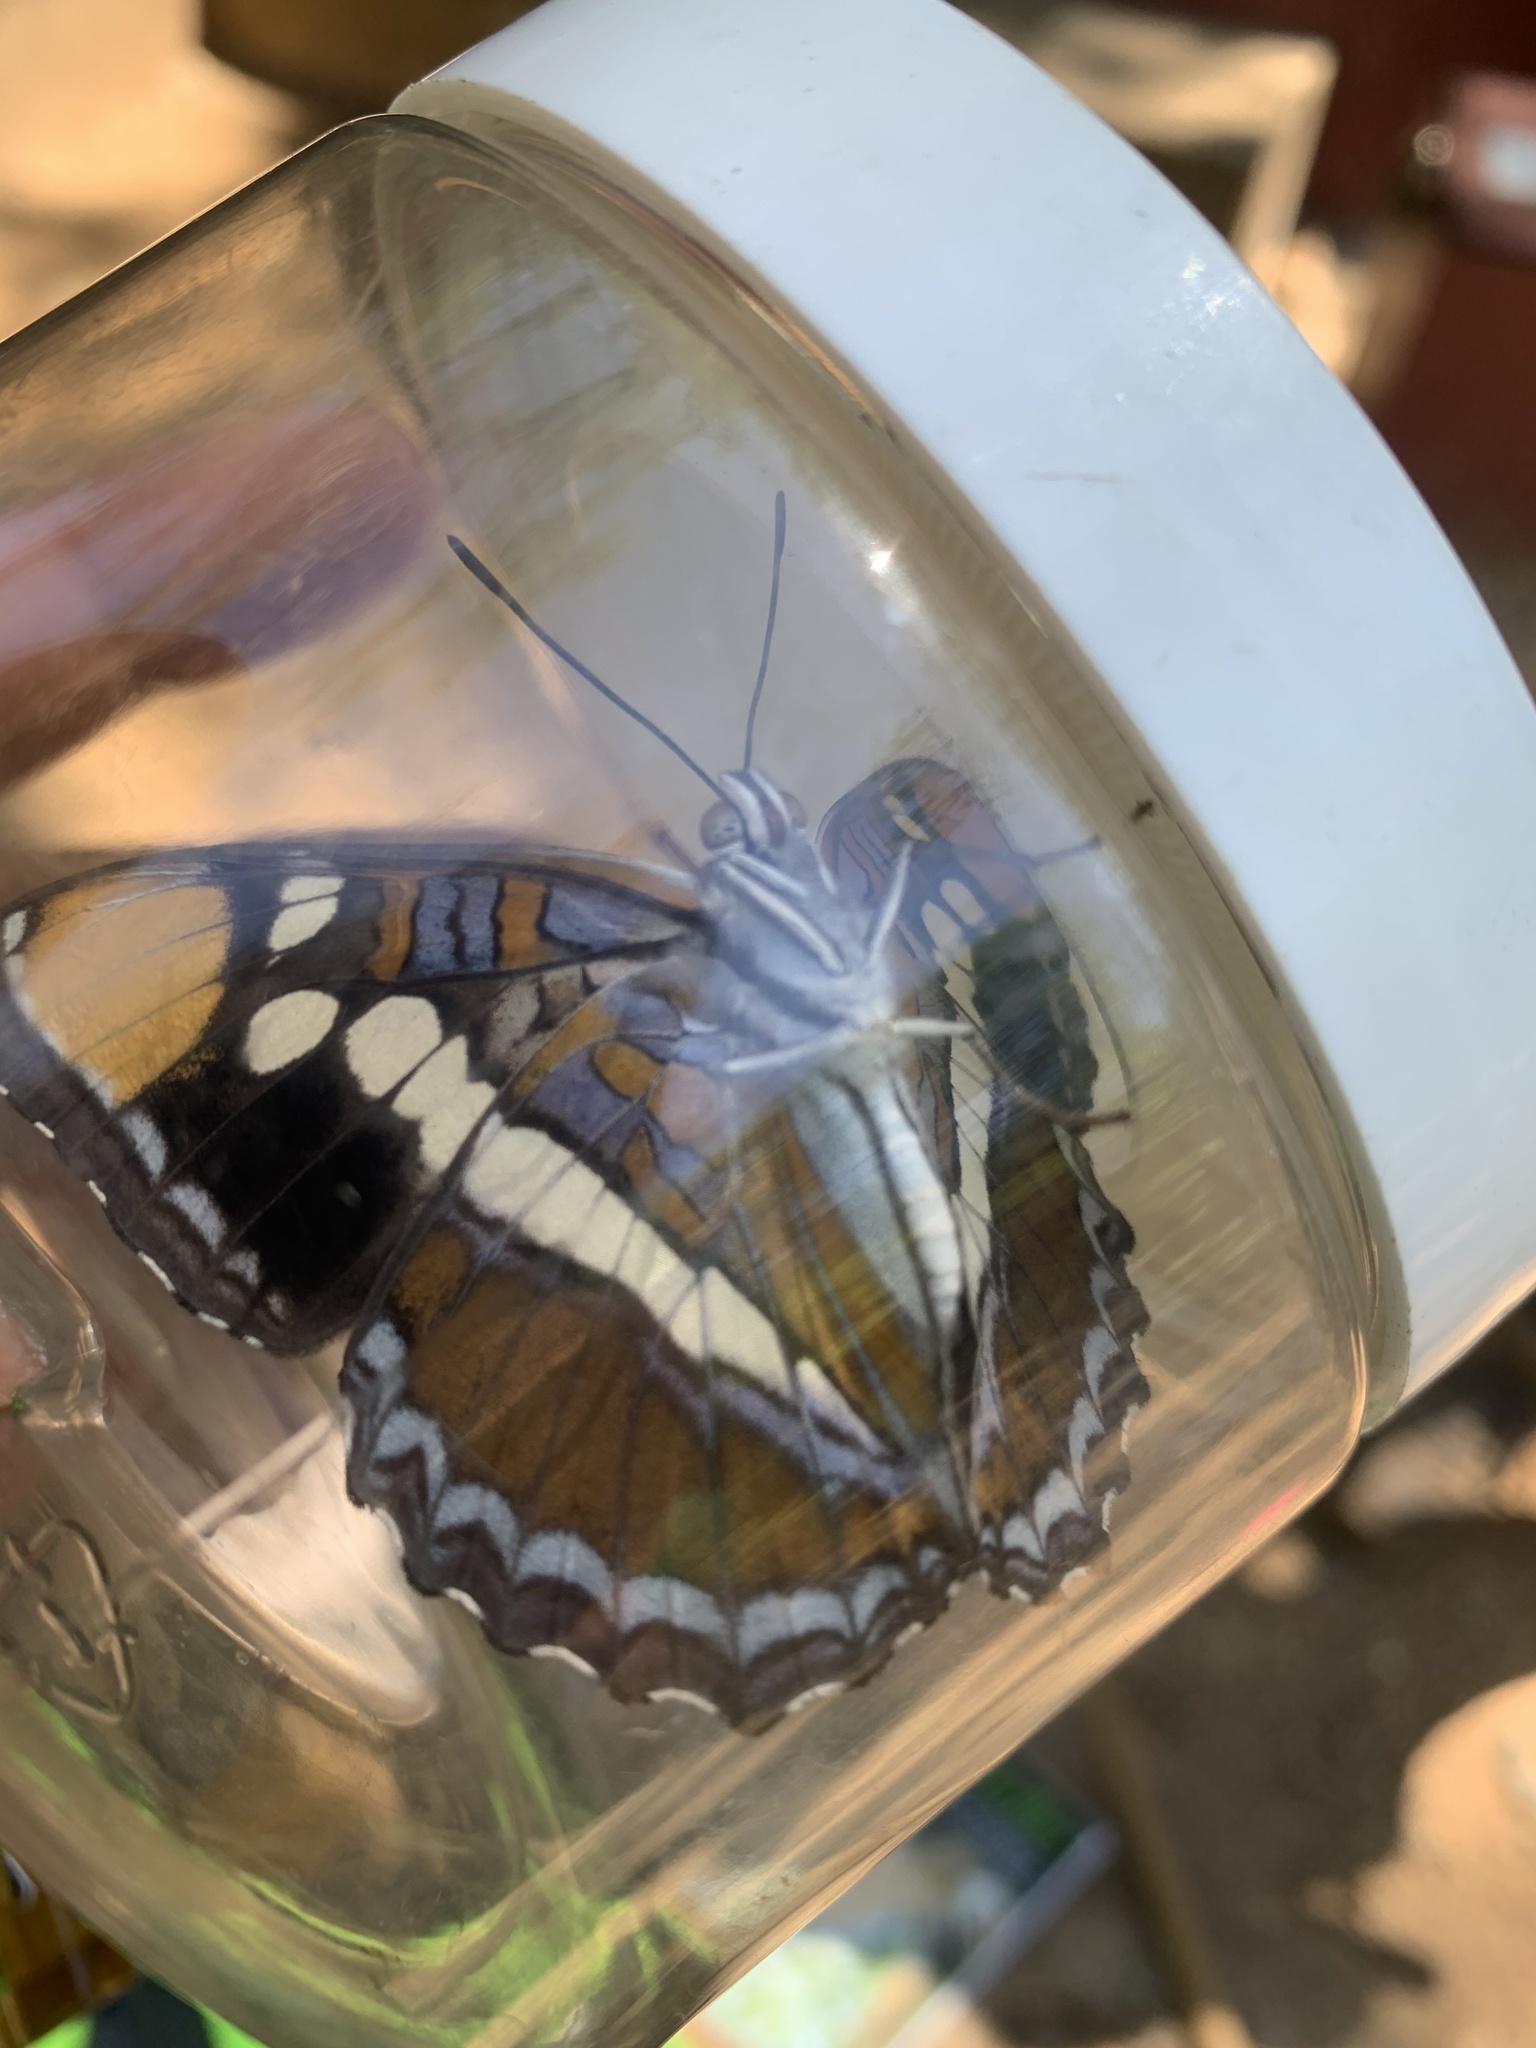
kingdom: Animalia
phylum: Arthropoda
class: Insecta
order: Lepidoptera
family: Nymphalidae
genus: Limenitis
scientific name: Limenitis bredowii
